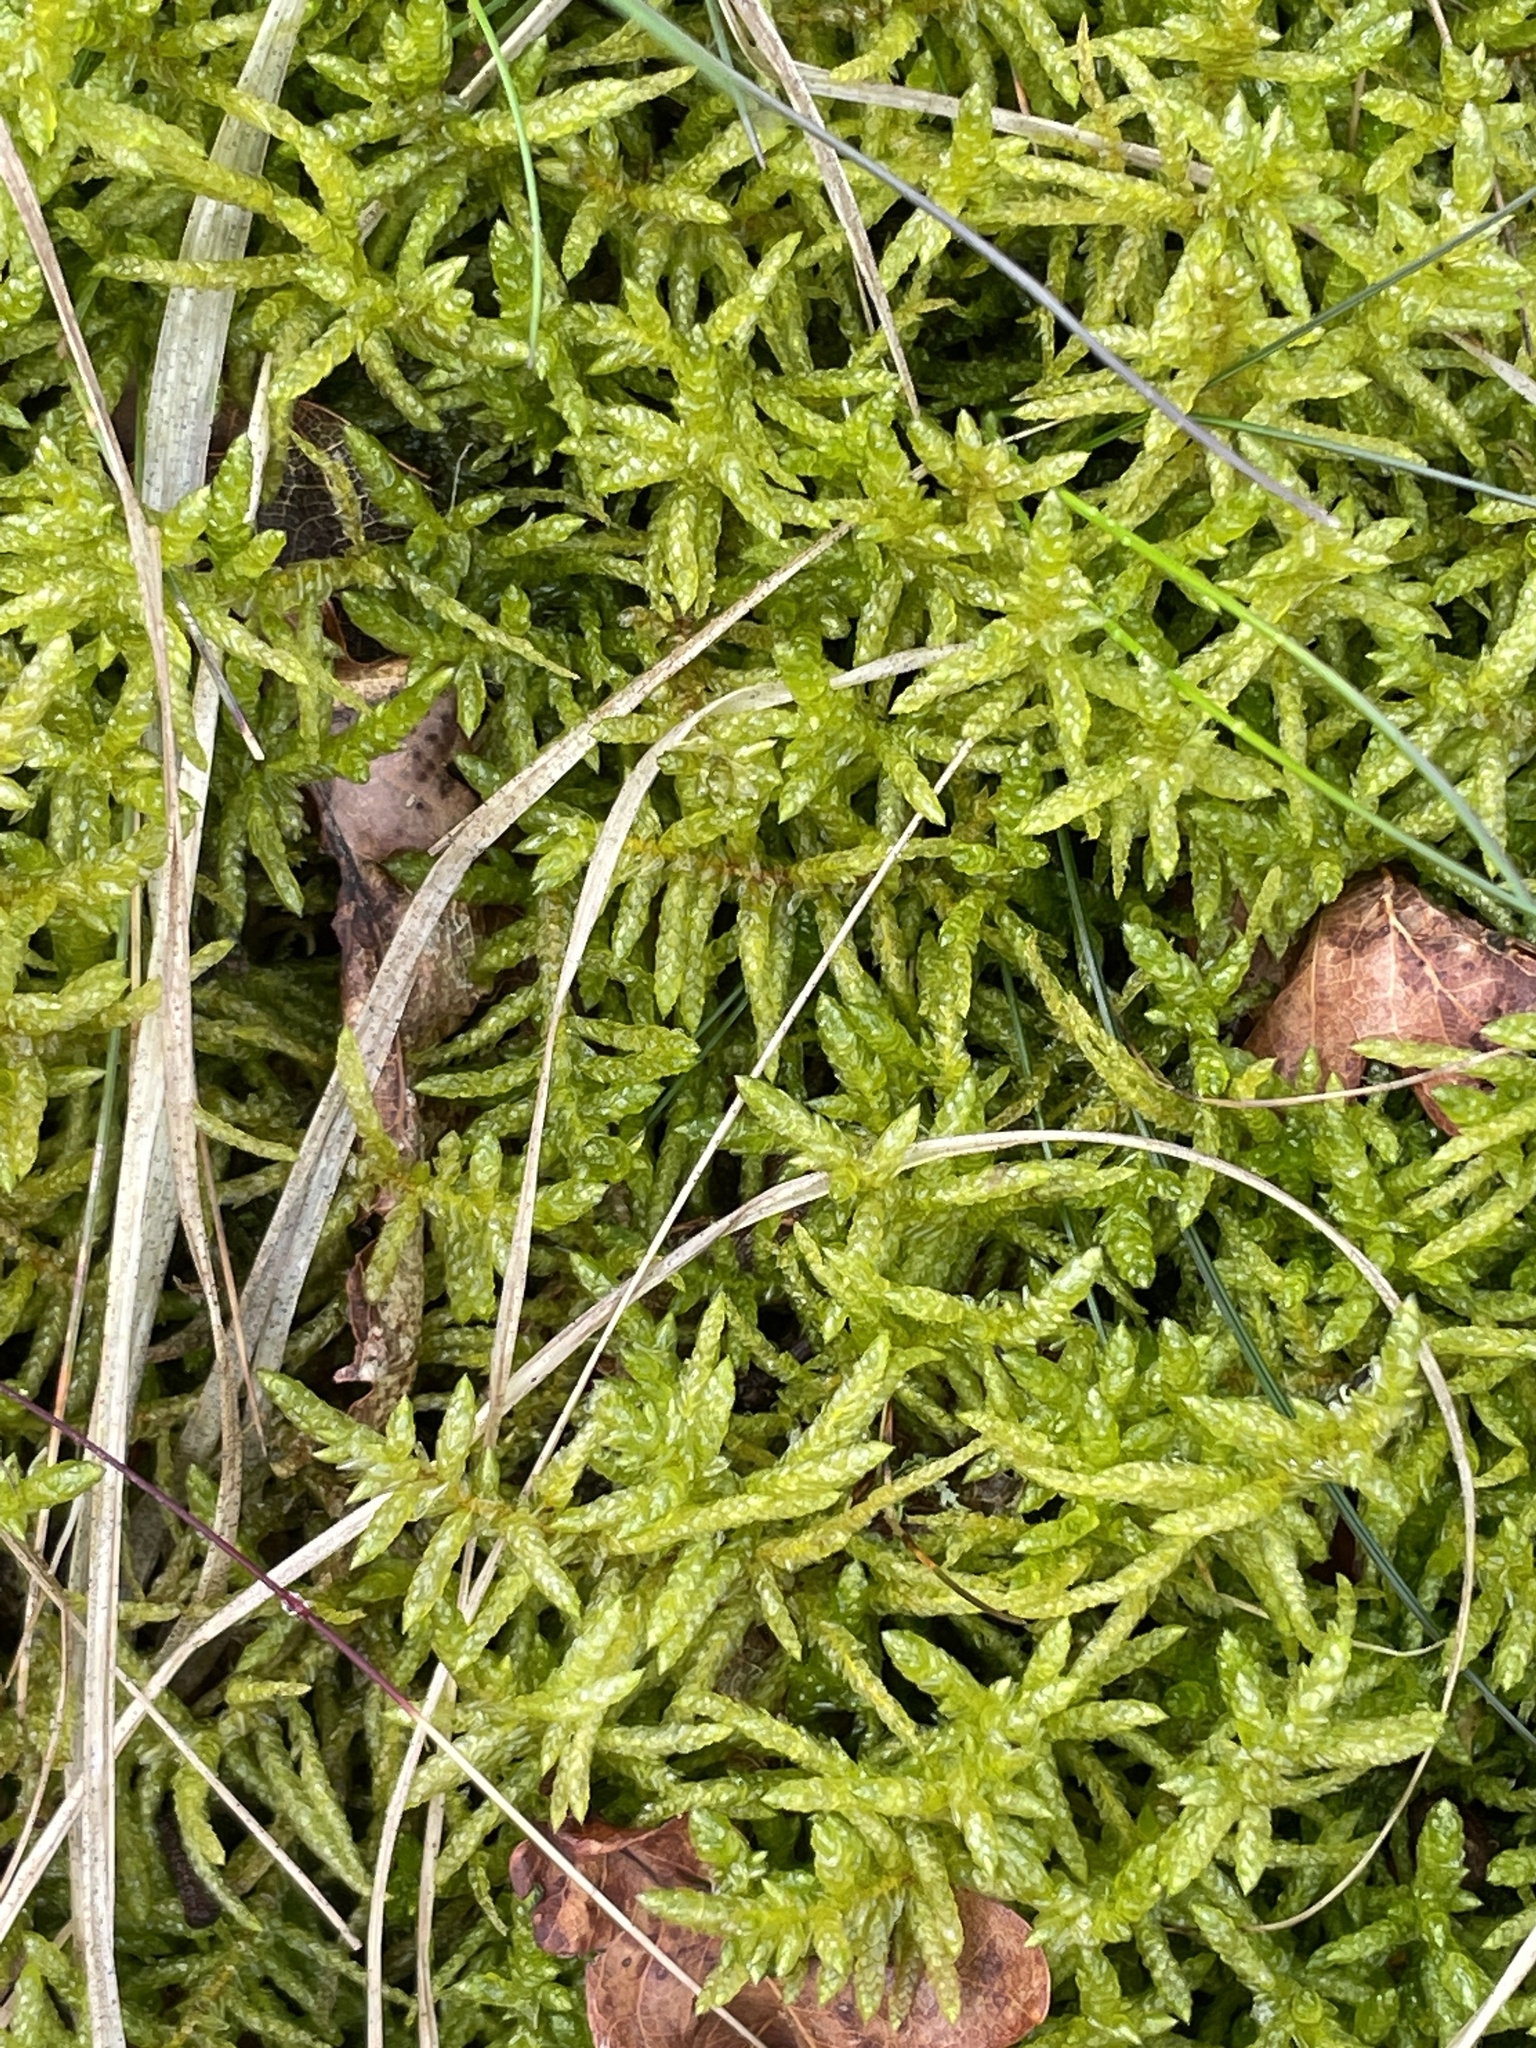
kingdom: Plantae
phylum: Bryophyta
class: Bryopsida
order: Hypnales
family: Brachytheciaceae
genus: Pseudoscleropodium
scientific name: Pseudoscleropodium purum
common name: Neat feather-moss
